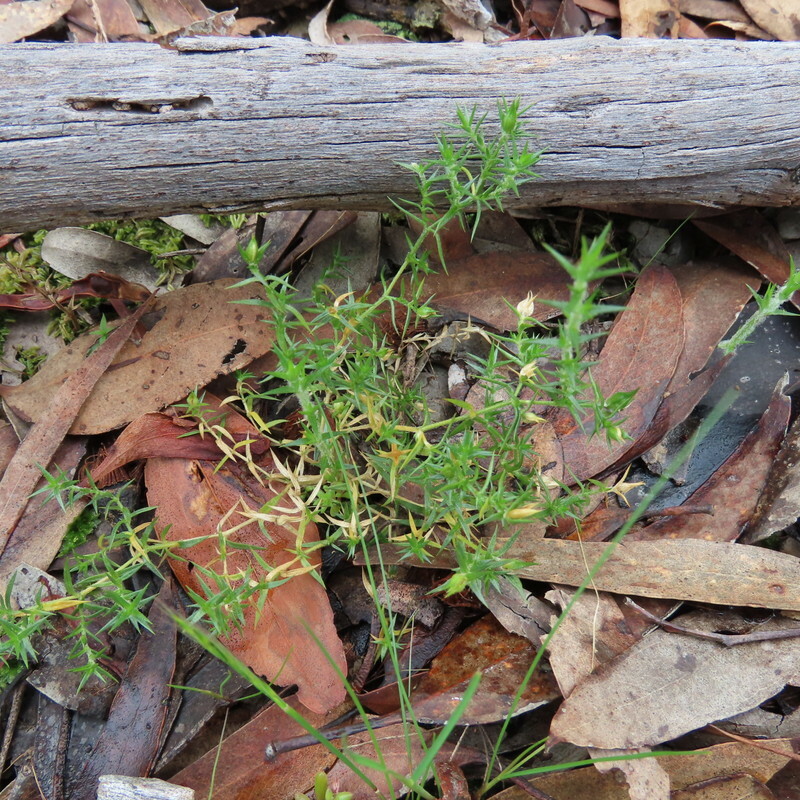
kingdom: Plantae
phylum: Tracheophyta
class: Magnoliopsida
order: Caryophyllales
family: Caryophyllaceae
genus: Stellaria
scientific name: Stellaria pungens
